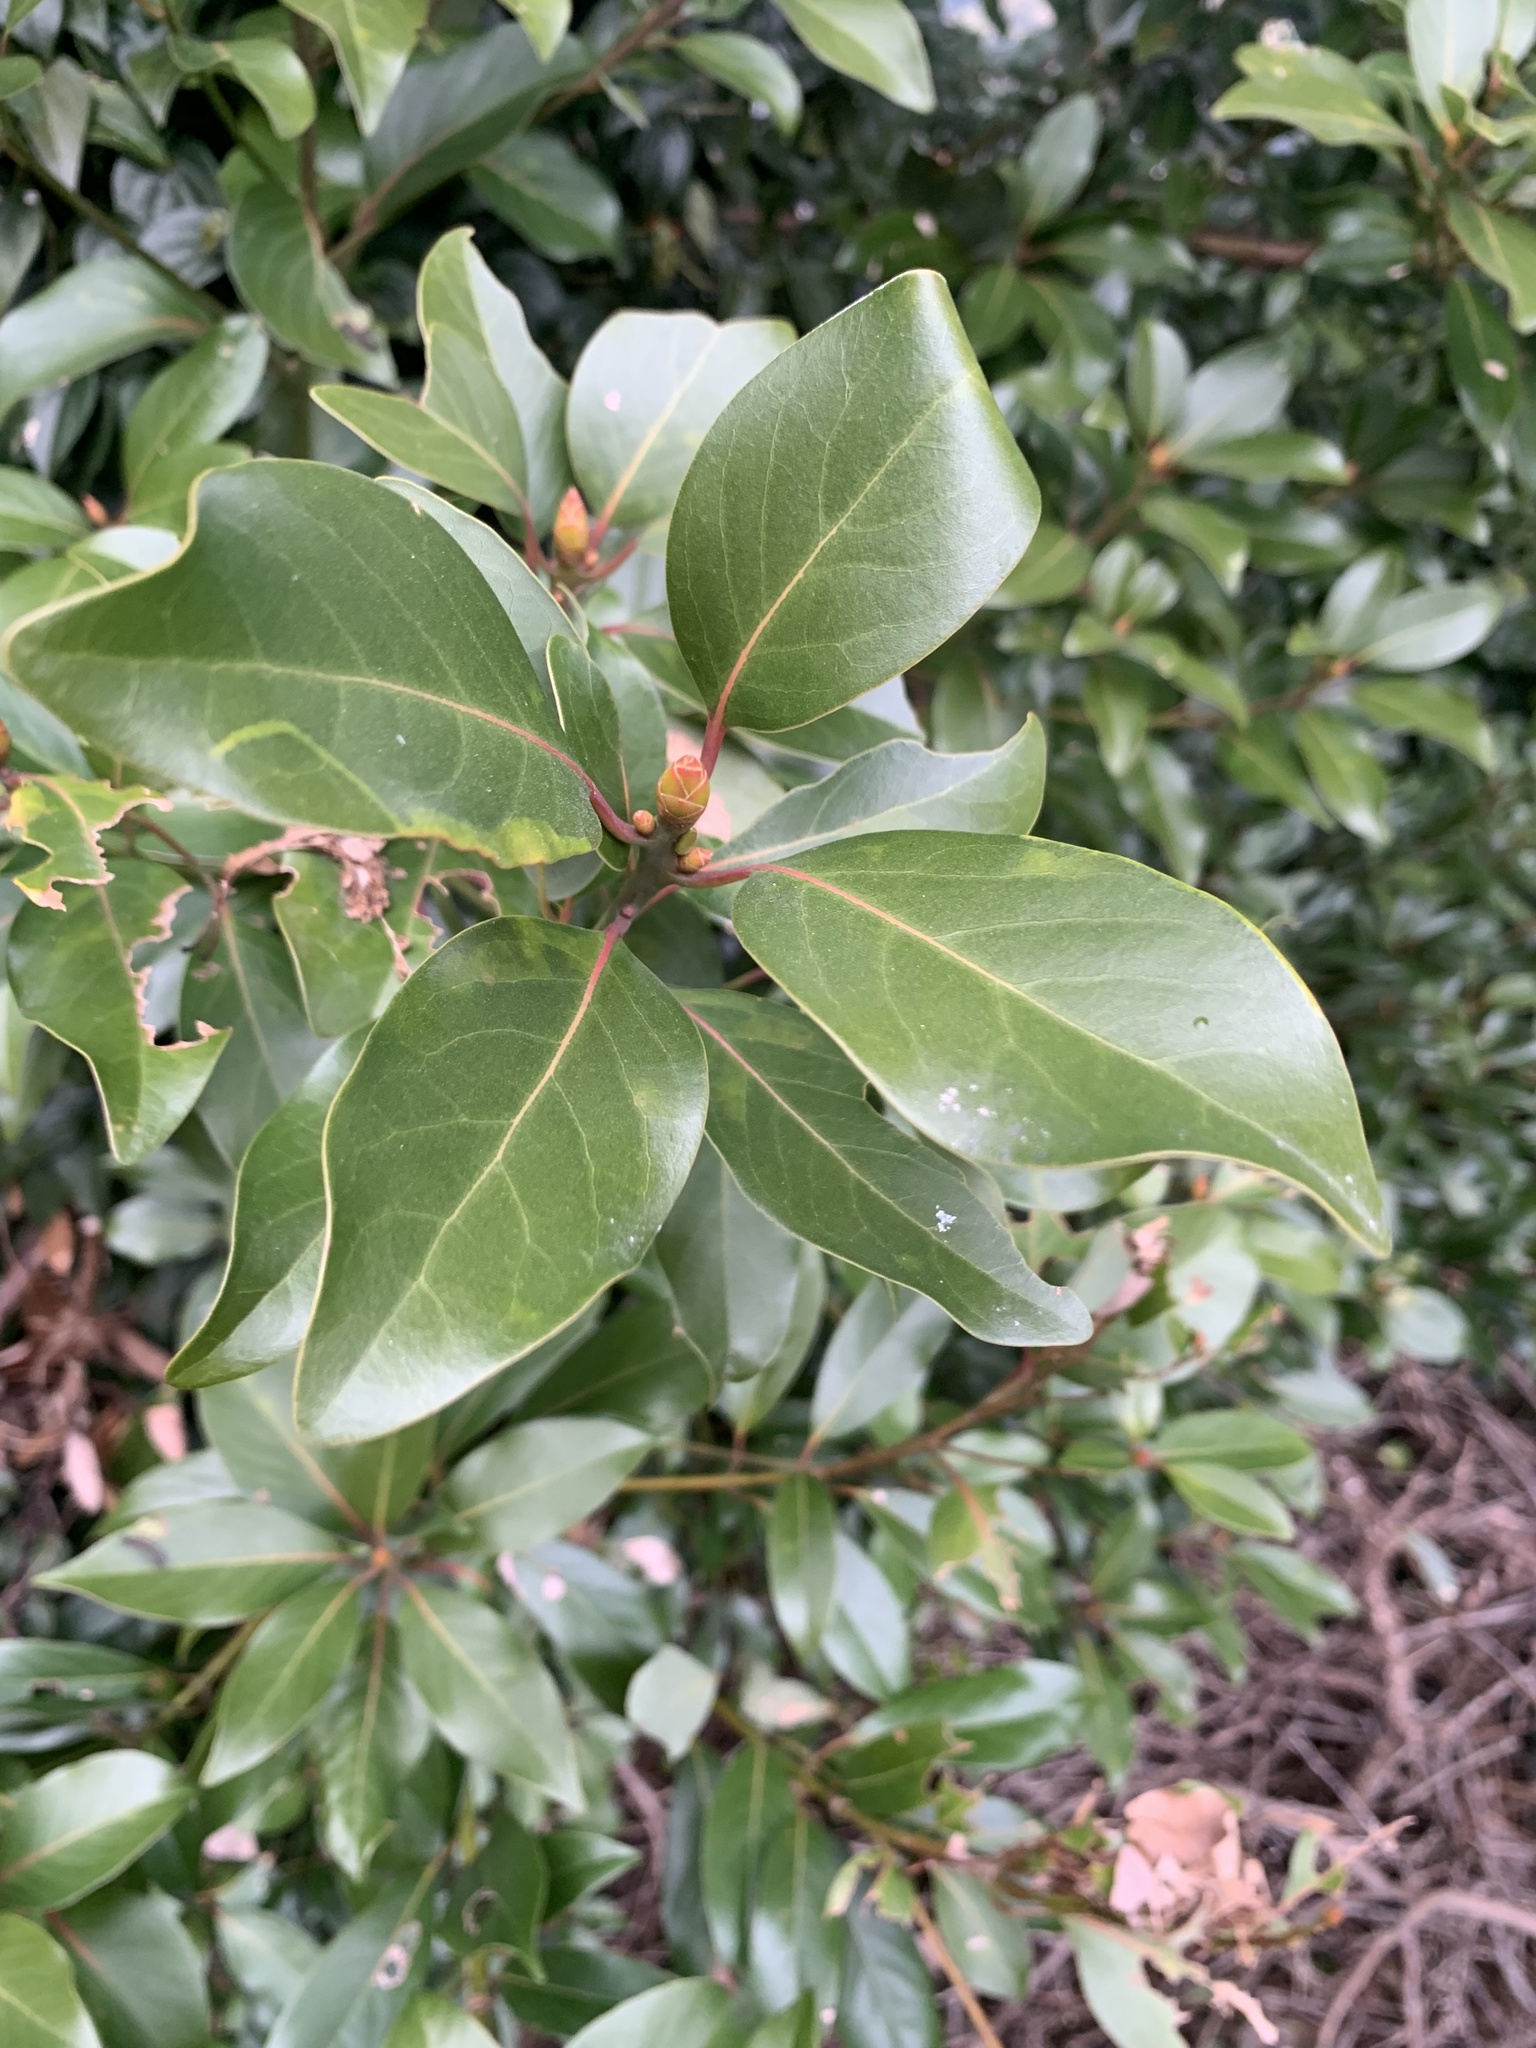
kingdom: Plantae
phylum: Tracheophyta
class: Magnoliopsida
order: Laurales
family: Lauraceae
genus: Machilus
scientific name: Machilus thunbergii
